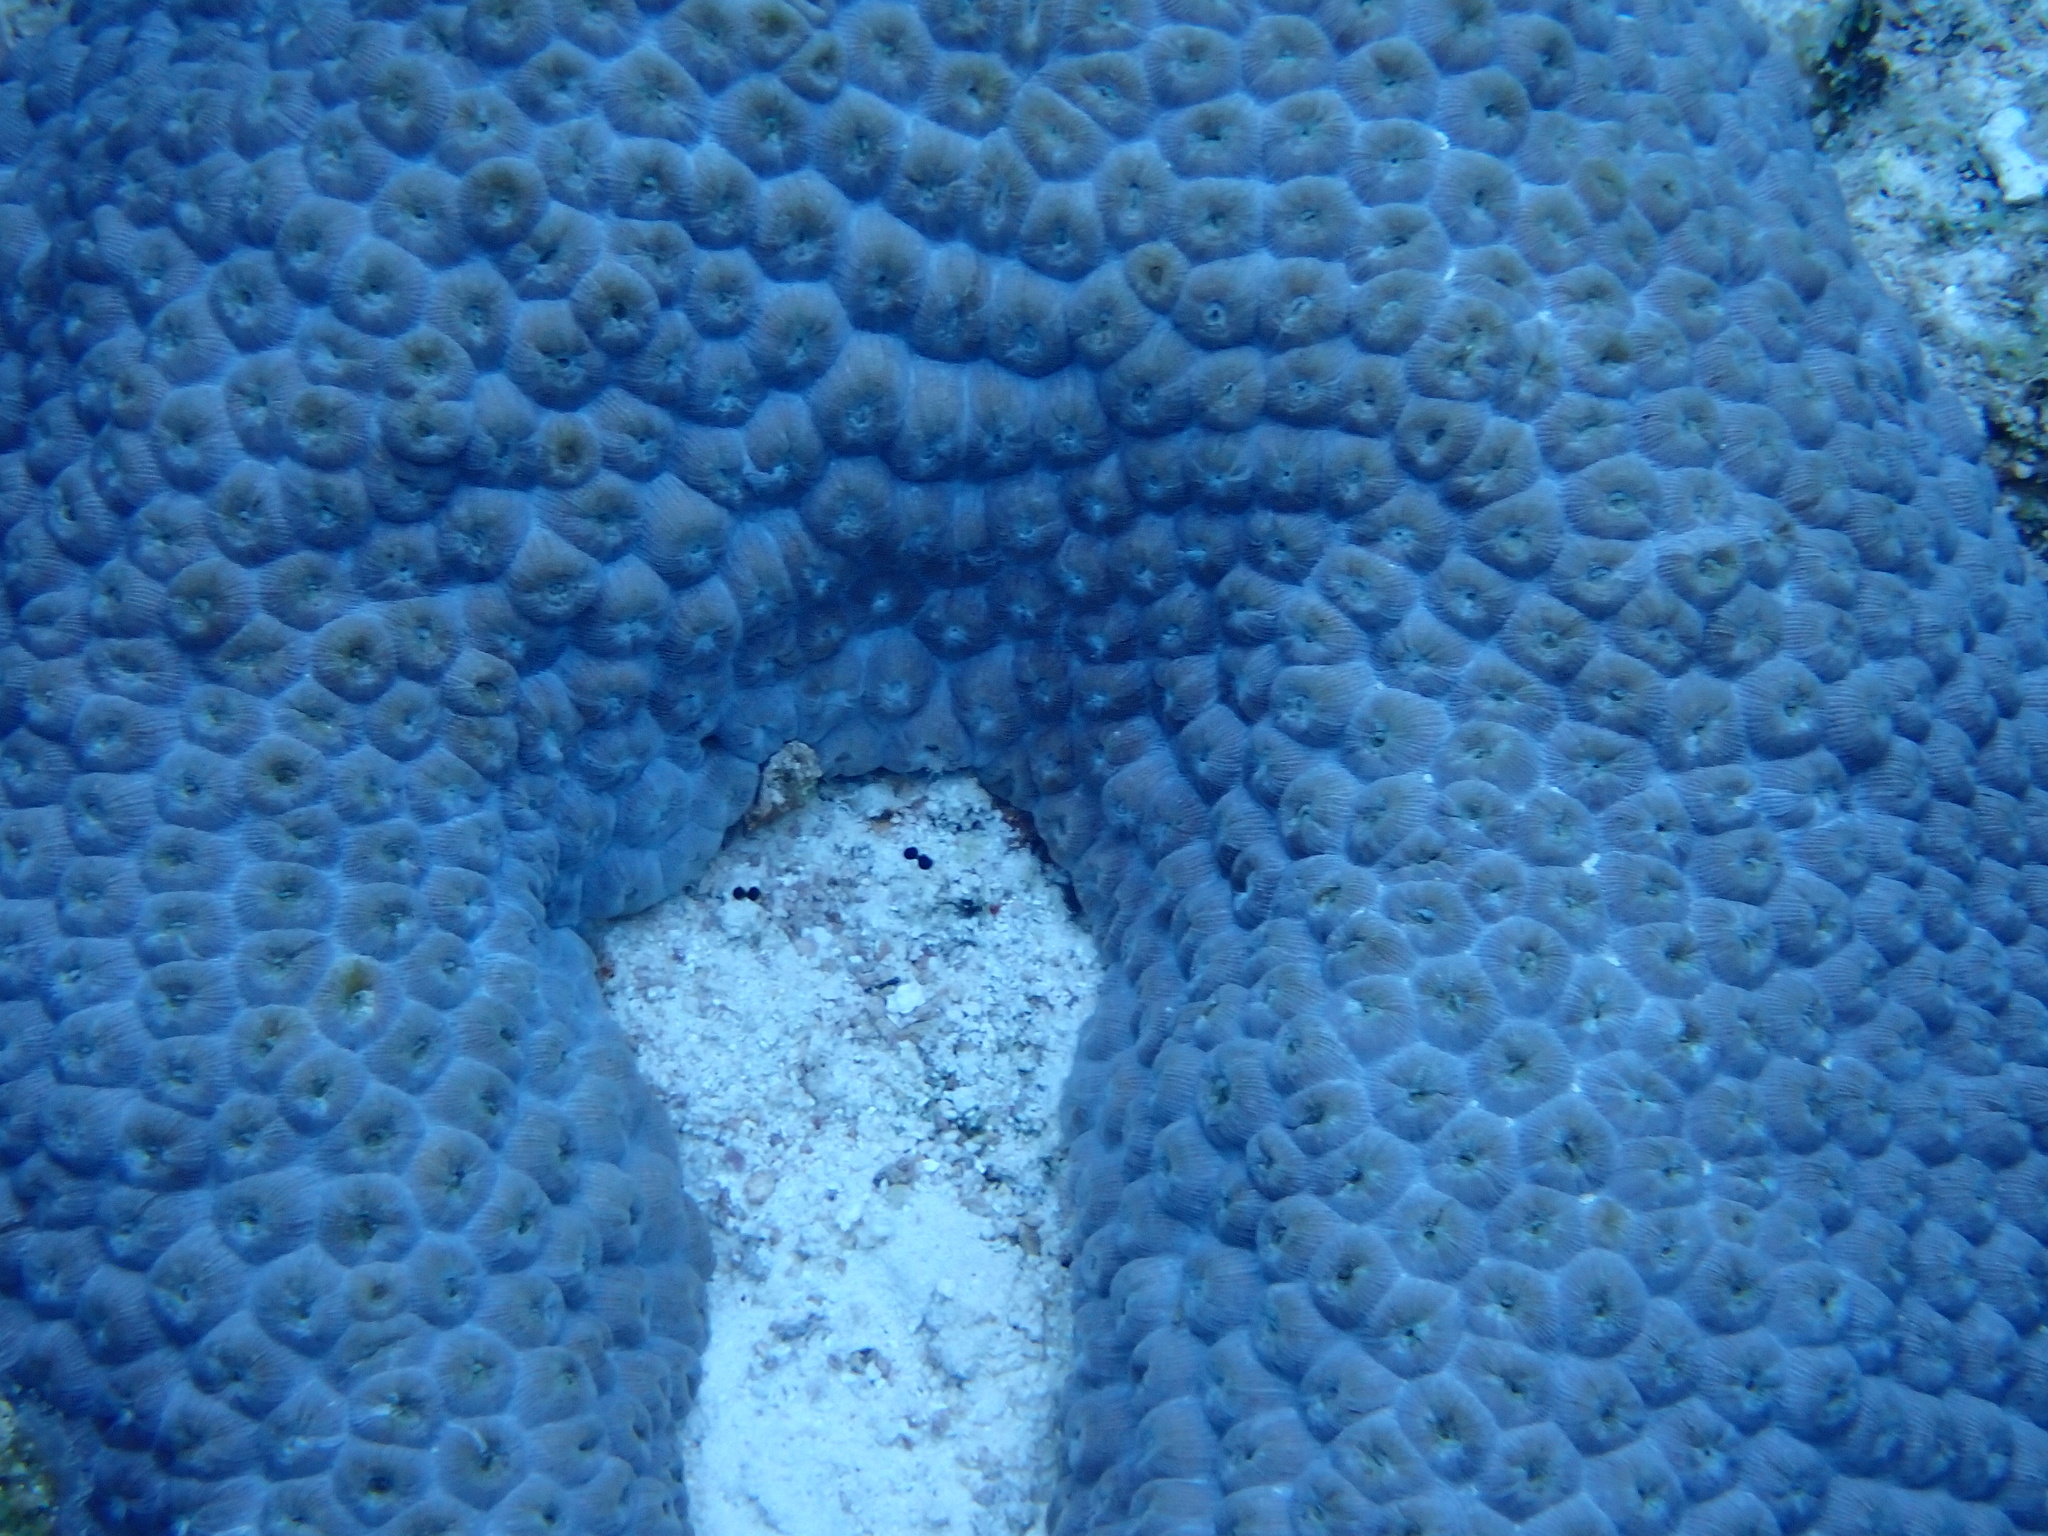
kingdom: Animalia
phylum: Cnidaria
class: Anthozoa
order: Scleractinia
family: Montastraeidae
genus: Montastraea
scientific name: Montastraea cavernosa
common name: Great star coral
